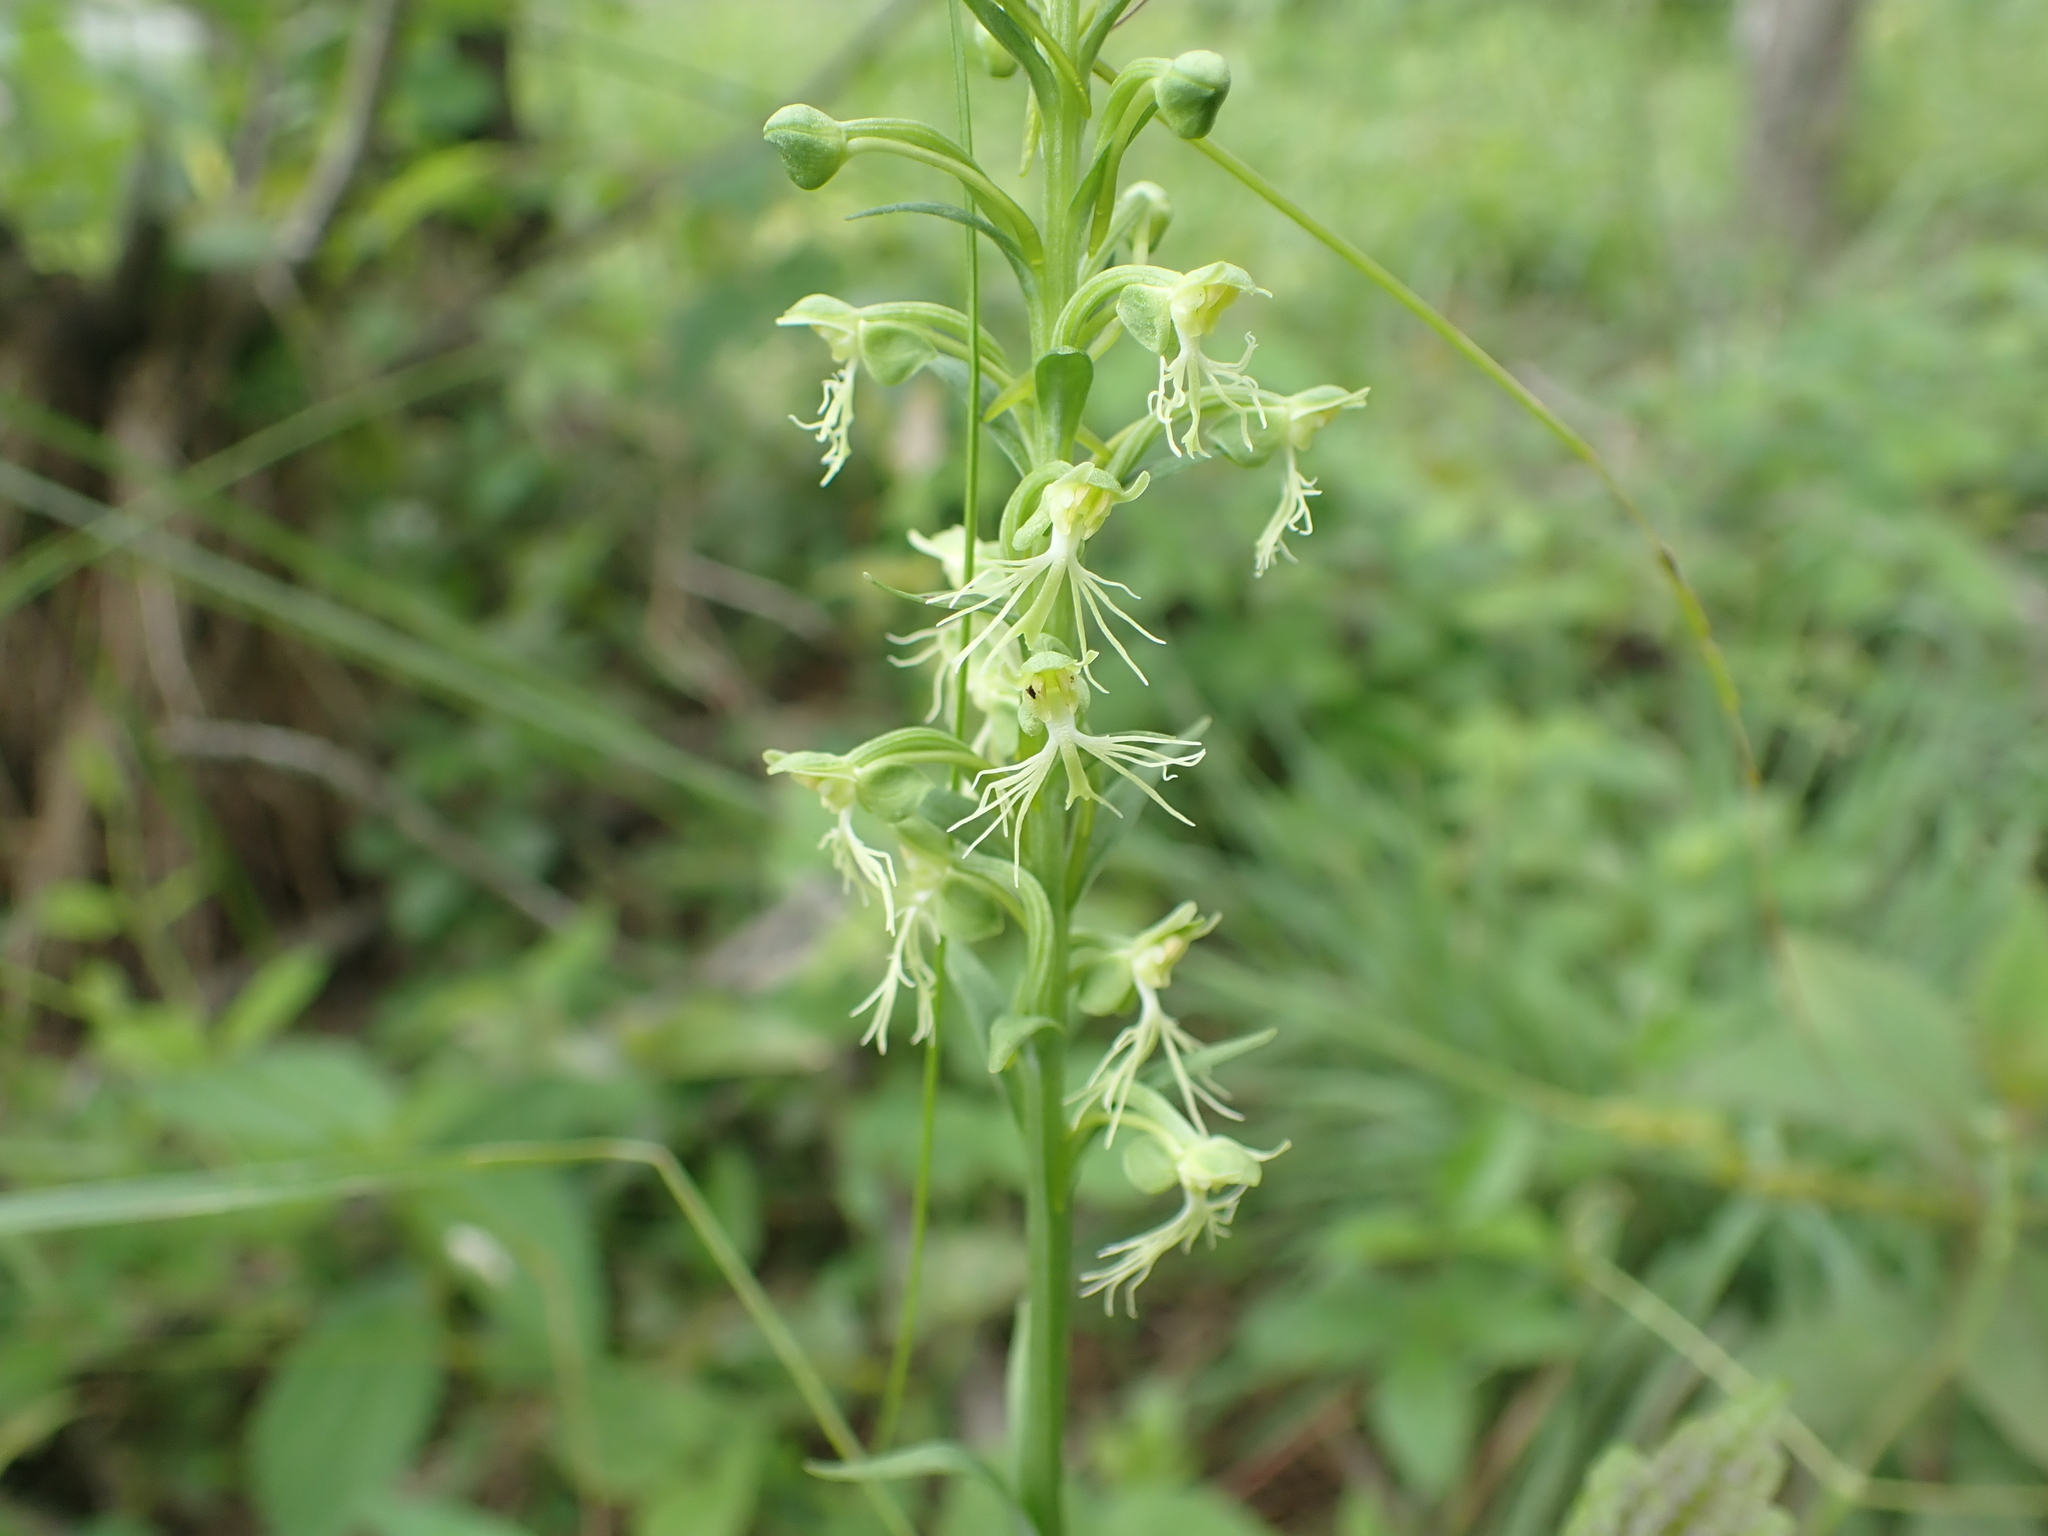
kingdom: Plantae
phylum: Tracheophyta
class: Liliopsida
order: Asparagales
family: Orchidaceae
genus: Platanthera
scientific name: Platanthera lacera
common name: Green fringed orchid
